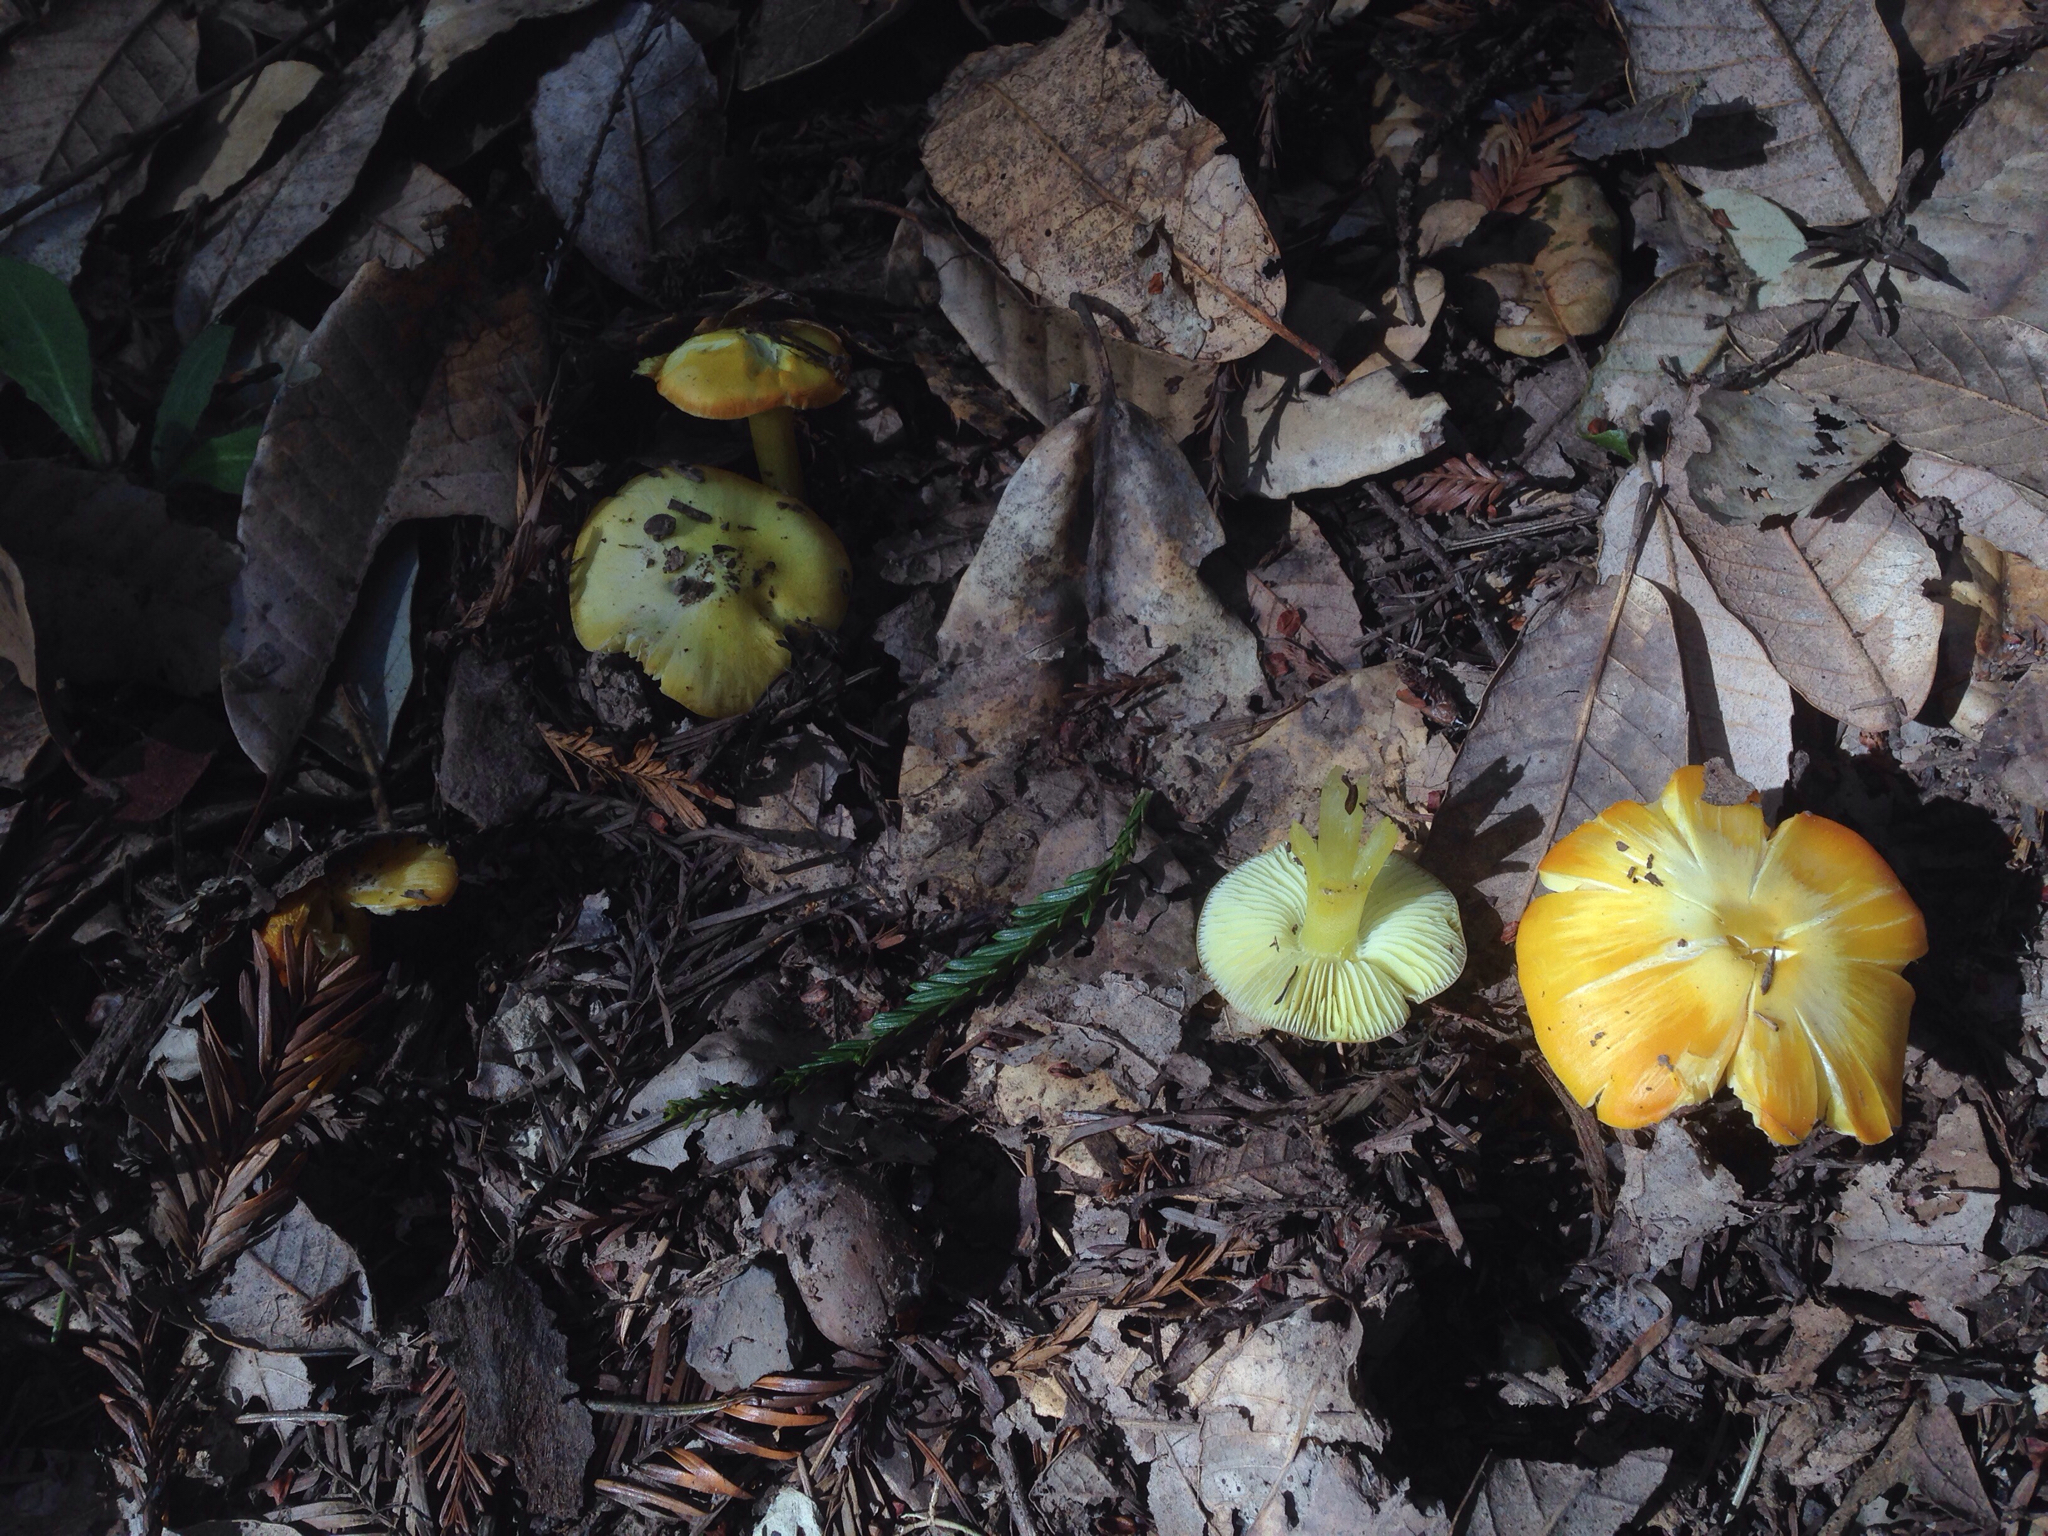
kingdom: Fungi
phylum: Basidiomycota
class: Agaricomycetes
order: Agaricales
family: Hygrophoraceae
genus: Hygrocybe
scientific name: Hygrocybe flavescens
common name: Golden waxy cap
